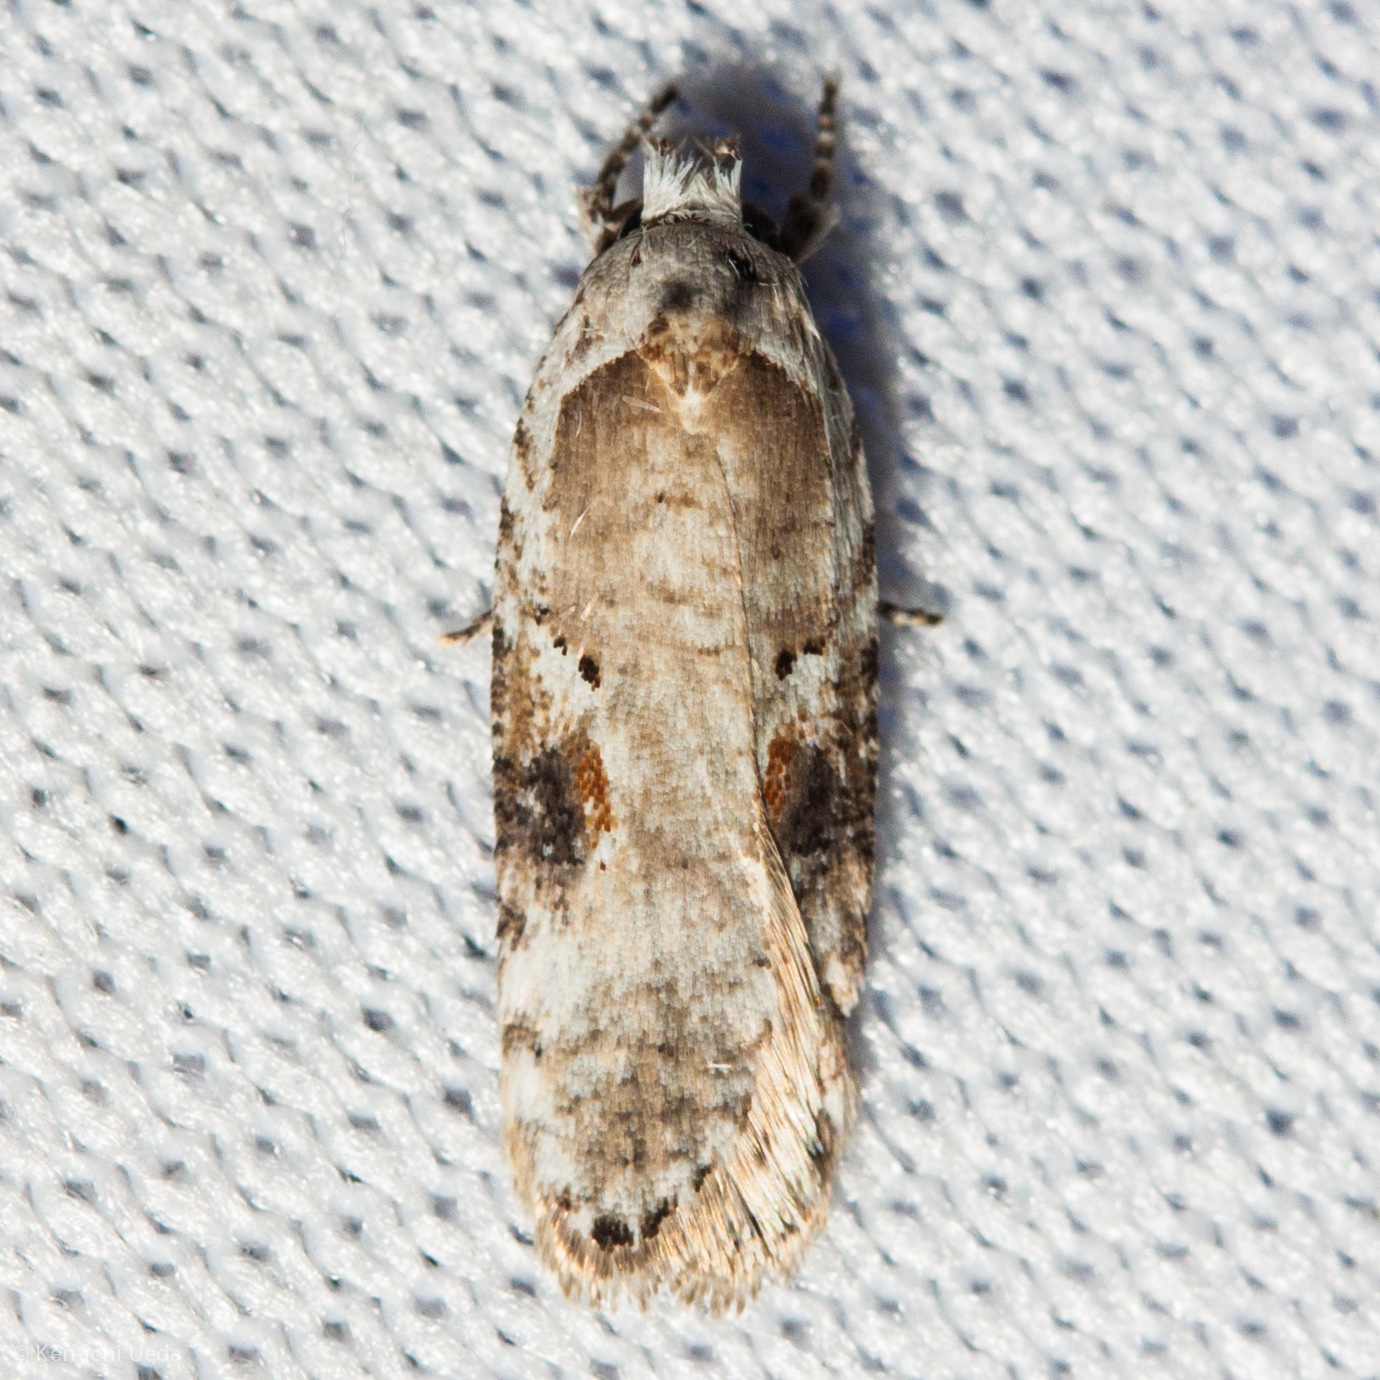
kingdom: Animalia
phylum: Arthropoda
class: Insecta
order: Lepidoptera
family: Depressariidae
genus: Agonopterix
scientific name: Agonopterix alstroemeriana
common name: Moth
